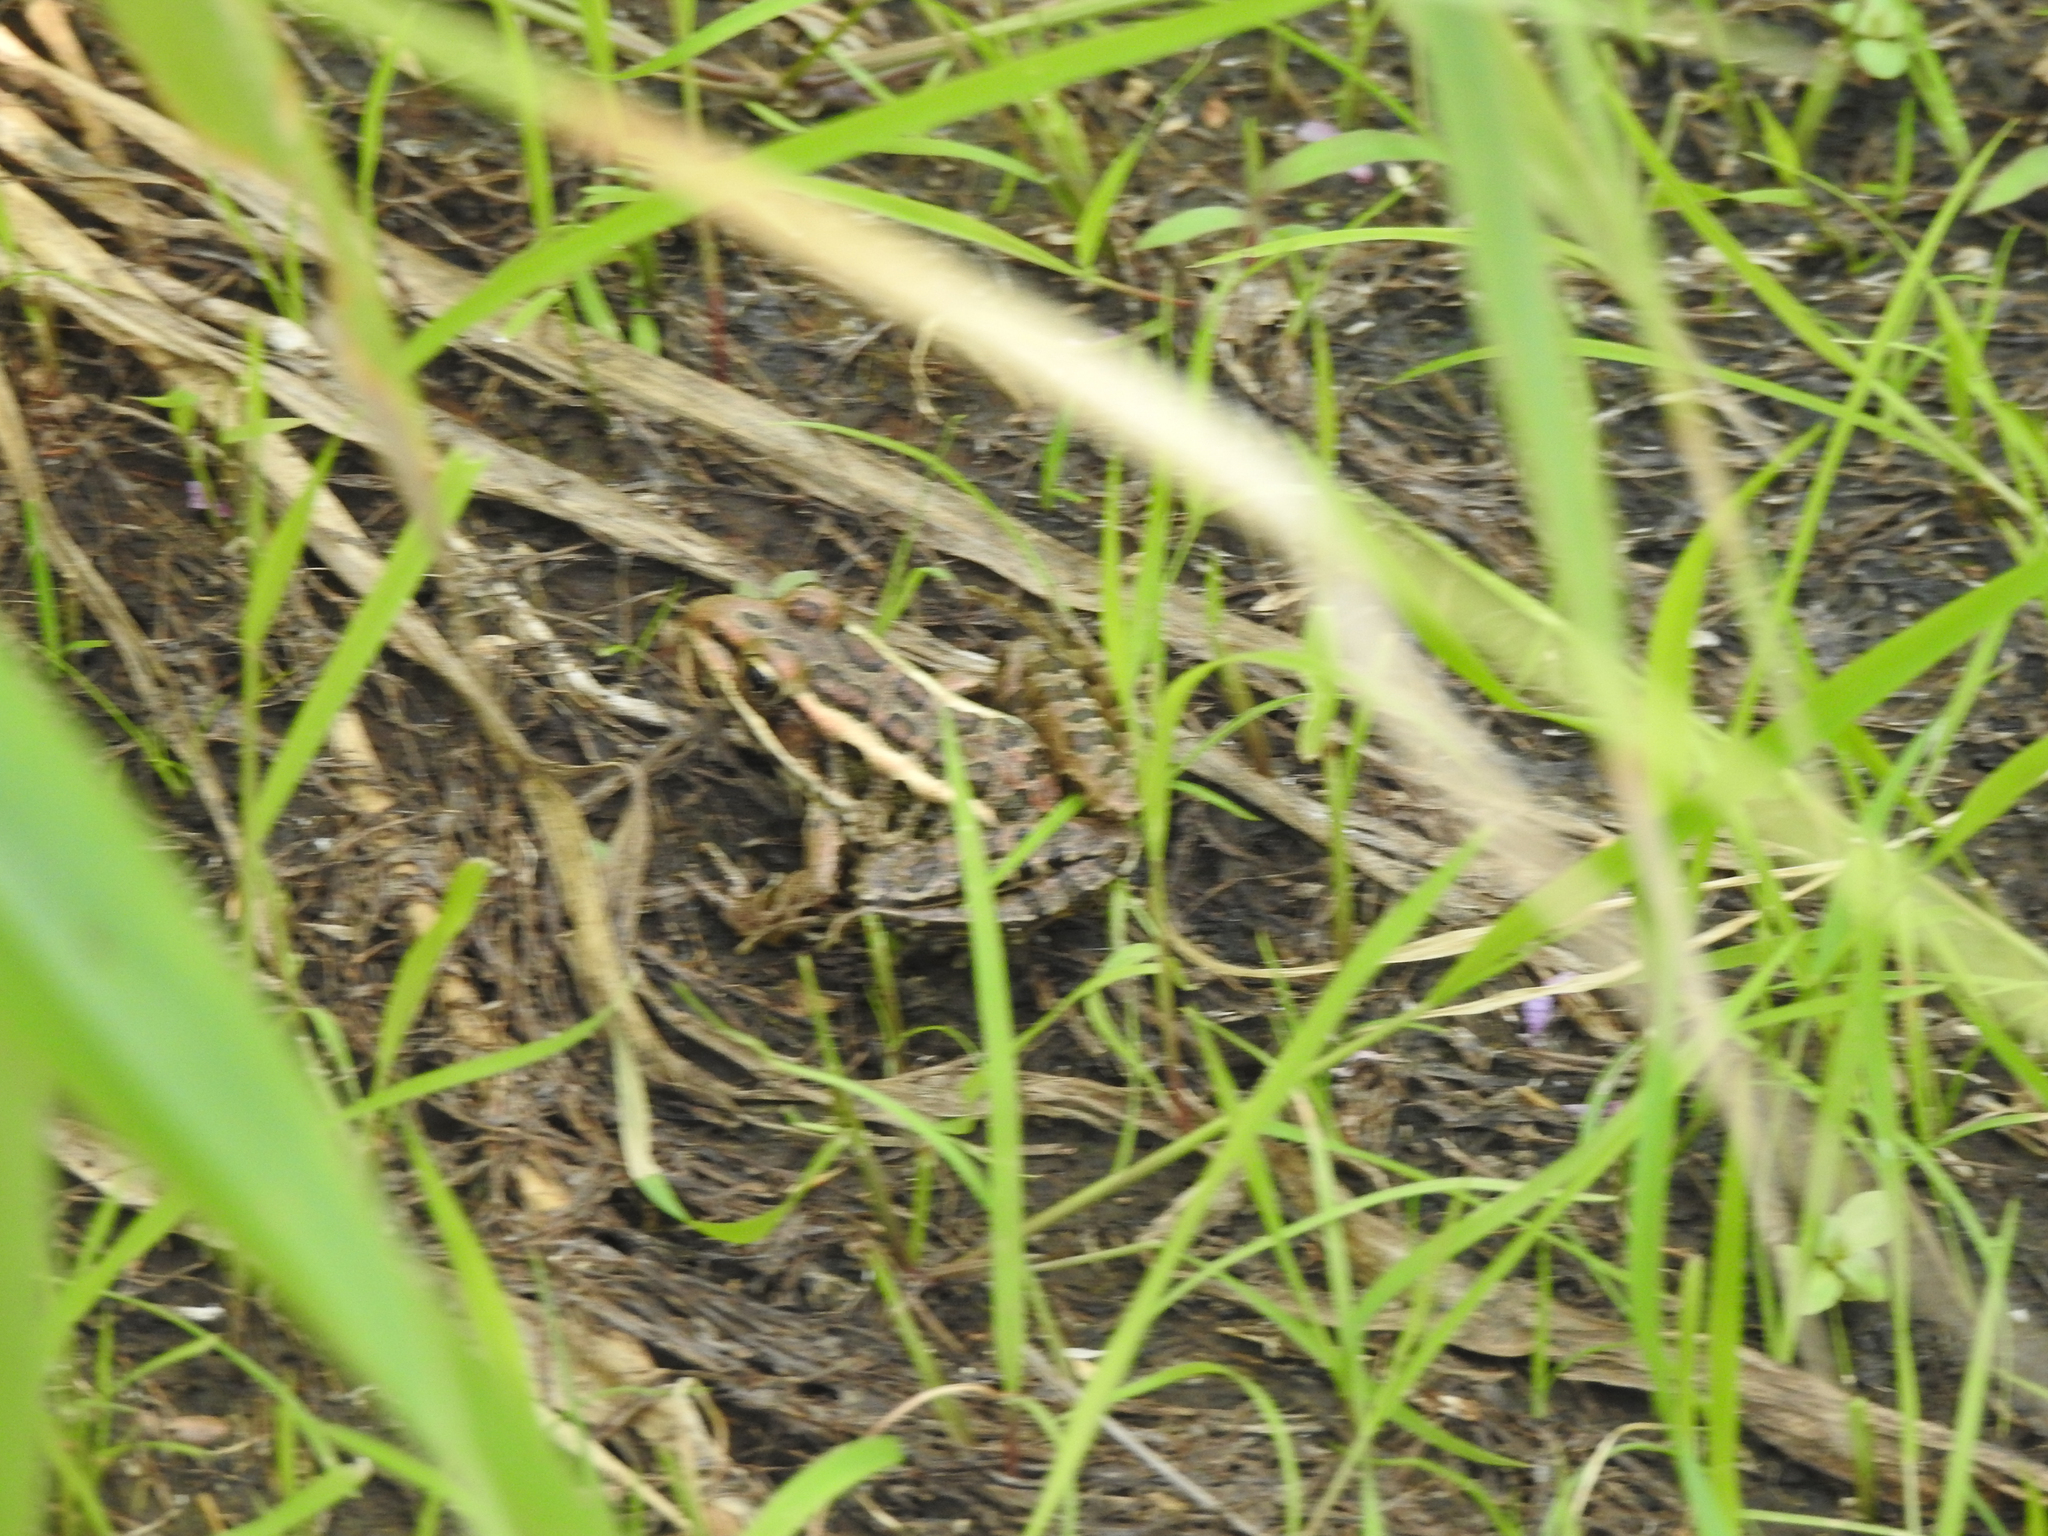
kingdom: Animalia
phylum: Chordata
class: Amphibia
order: Anura
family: Ranidae
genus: Lithobates
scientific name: Lithobates palustris
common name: Pickerel frog
